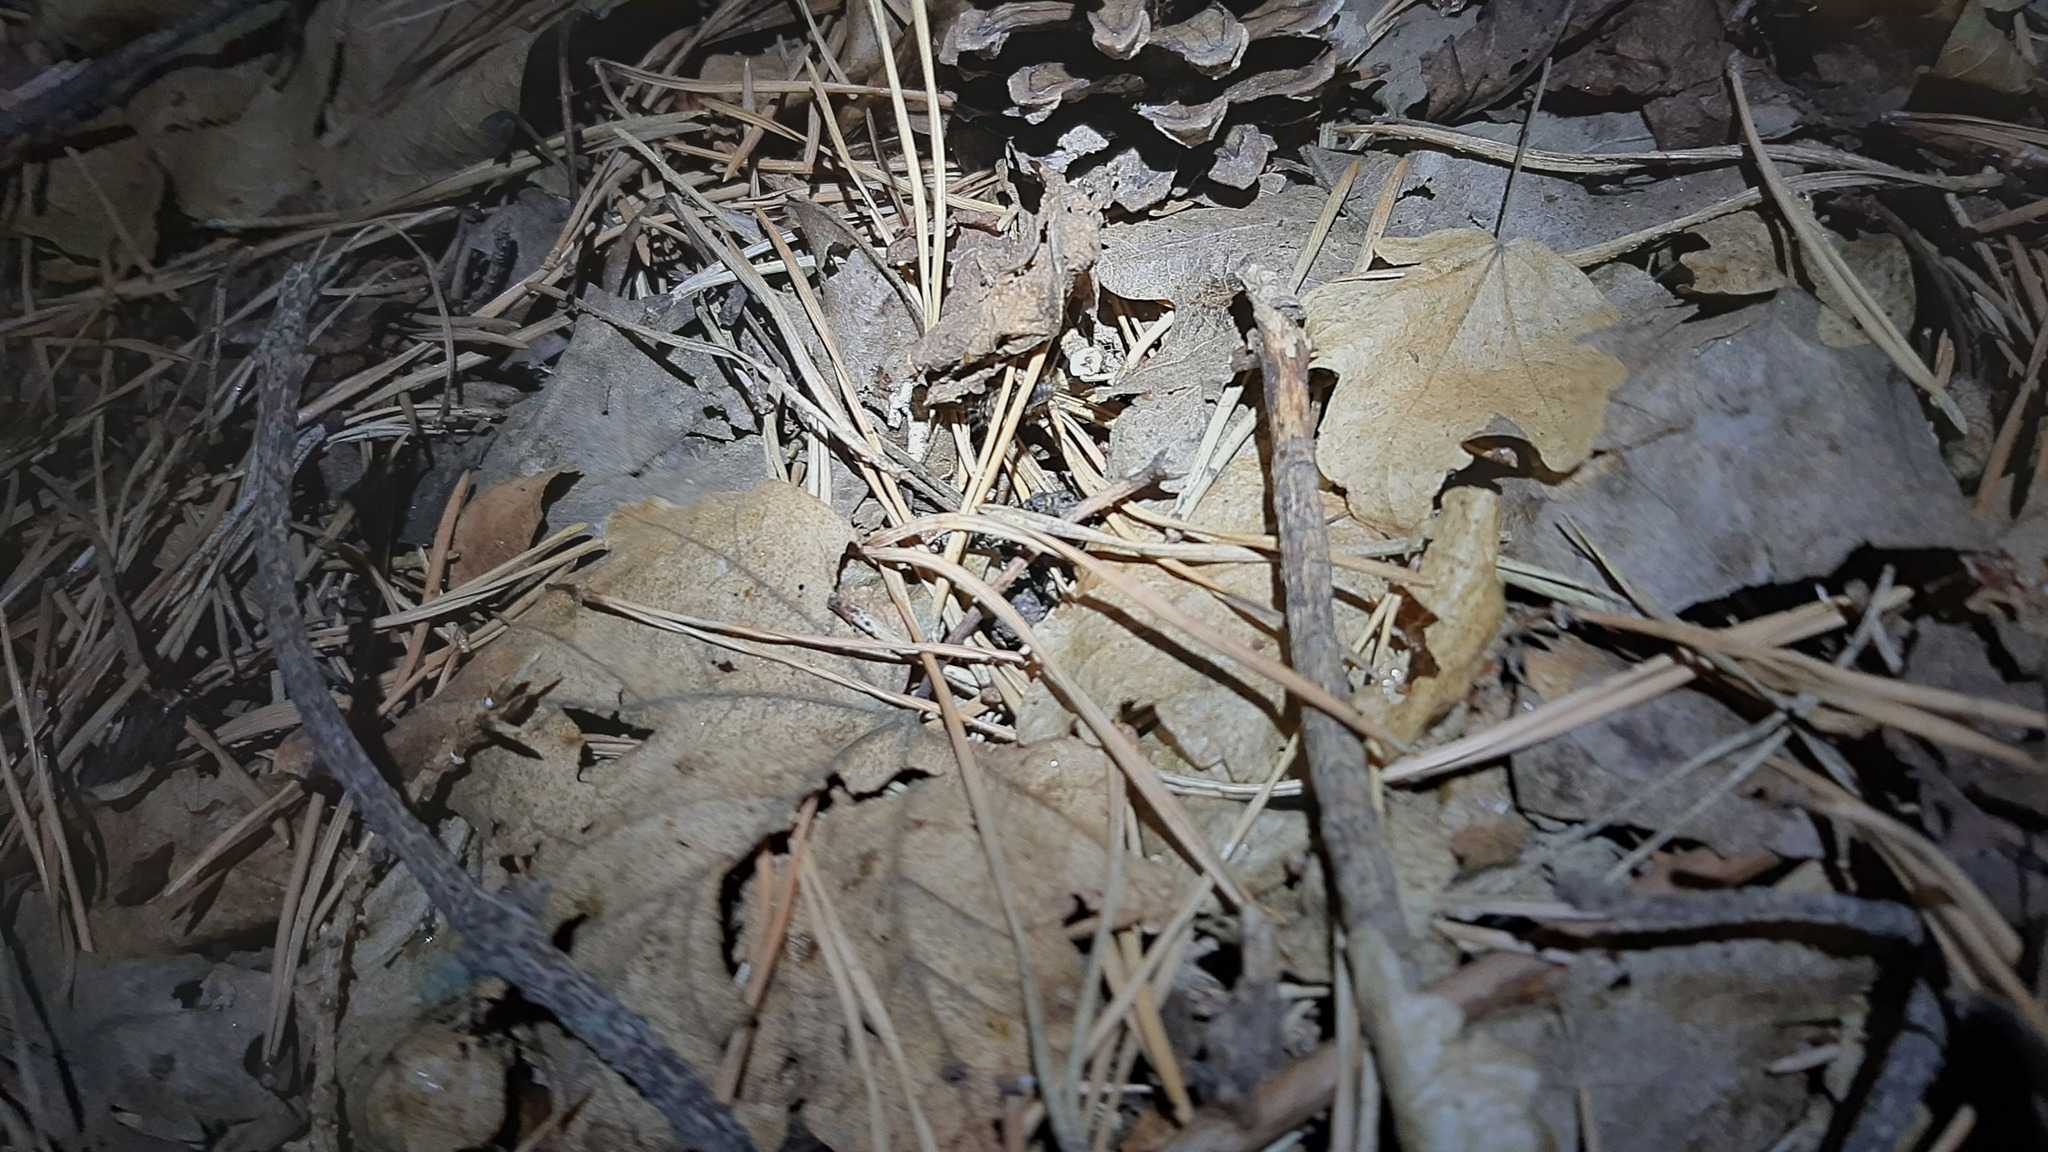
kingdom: Animalia
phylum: Arthropoda
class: Insecta
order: Orthoptera
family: Trigonidiidae
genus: Nemobius
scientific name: Nemobius sylvestris
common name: Wood-cricket
